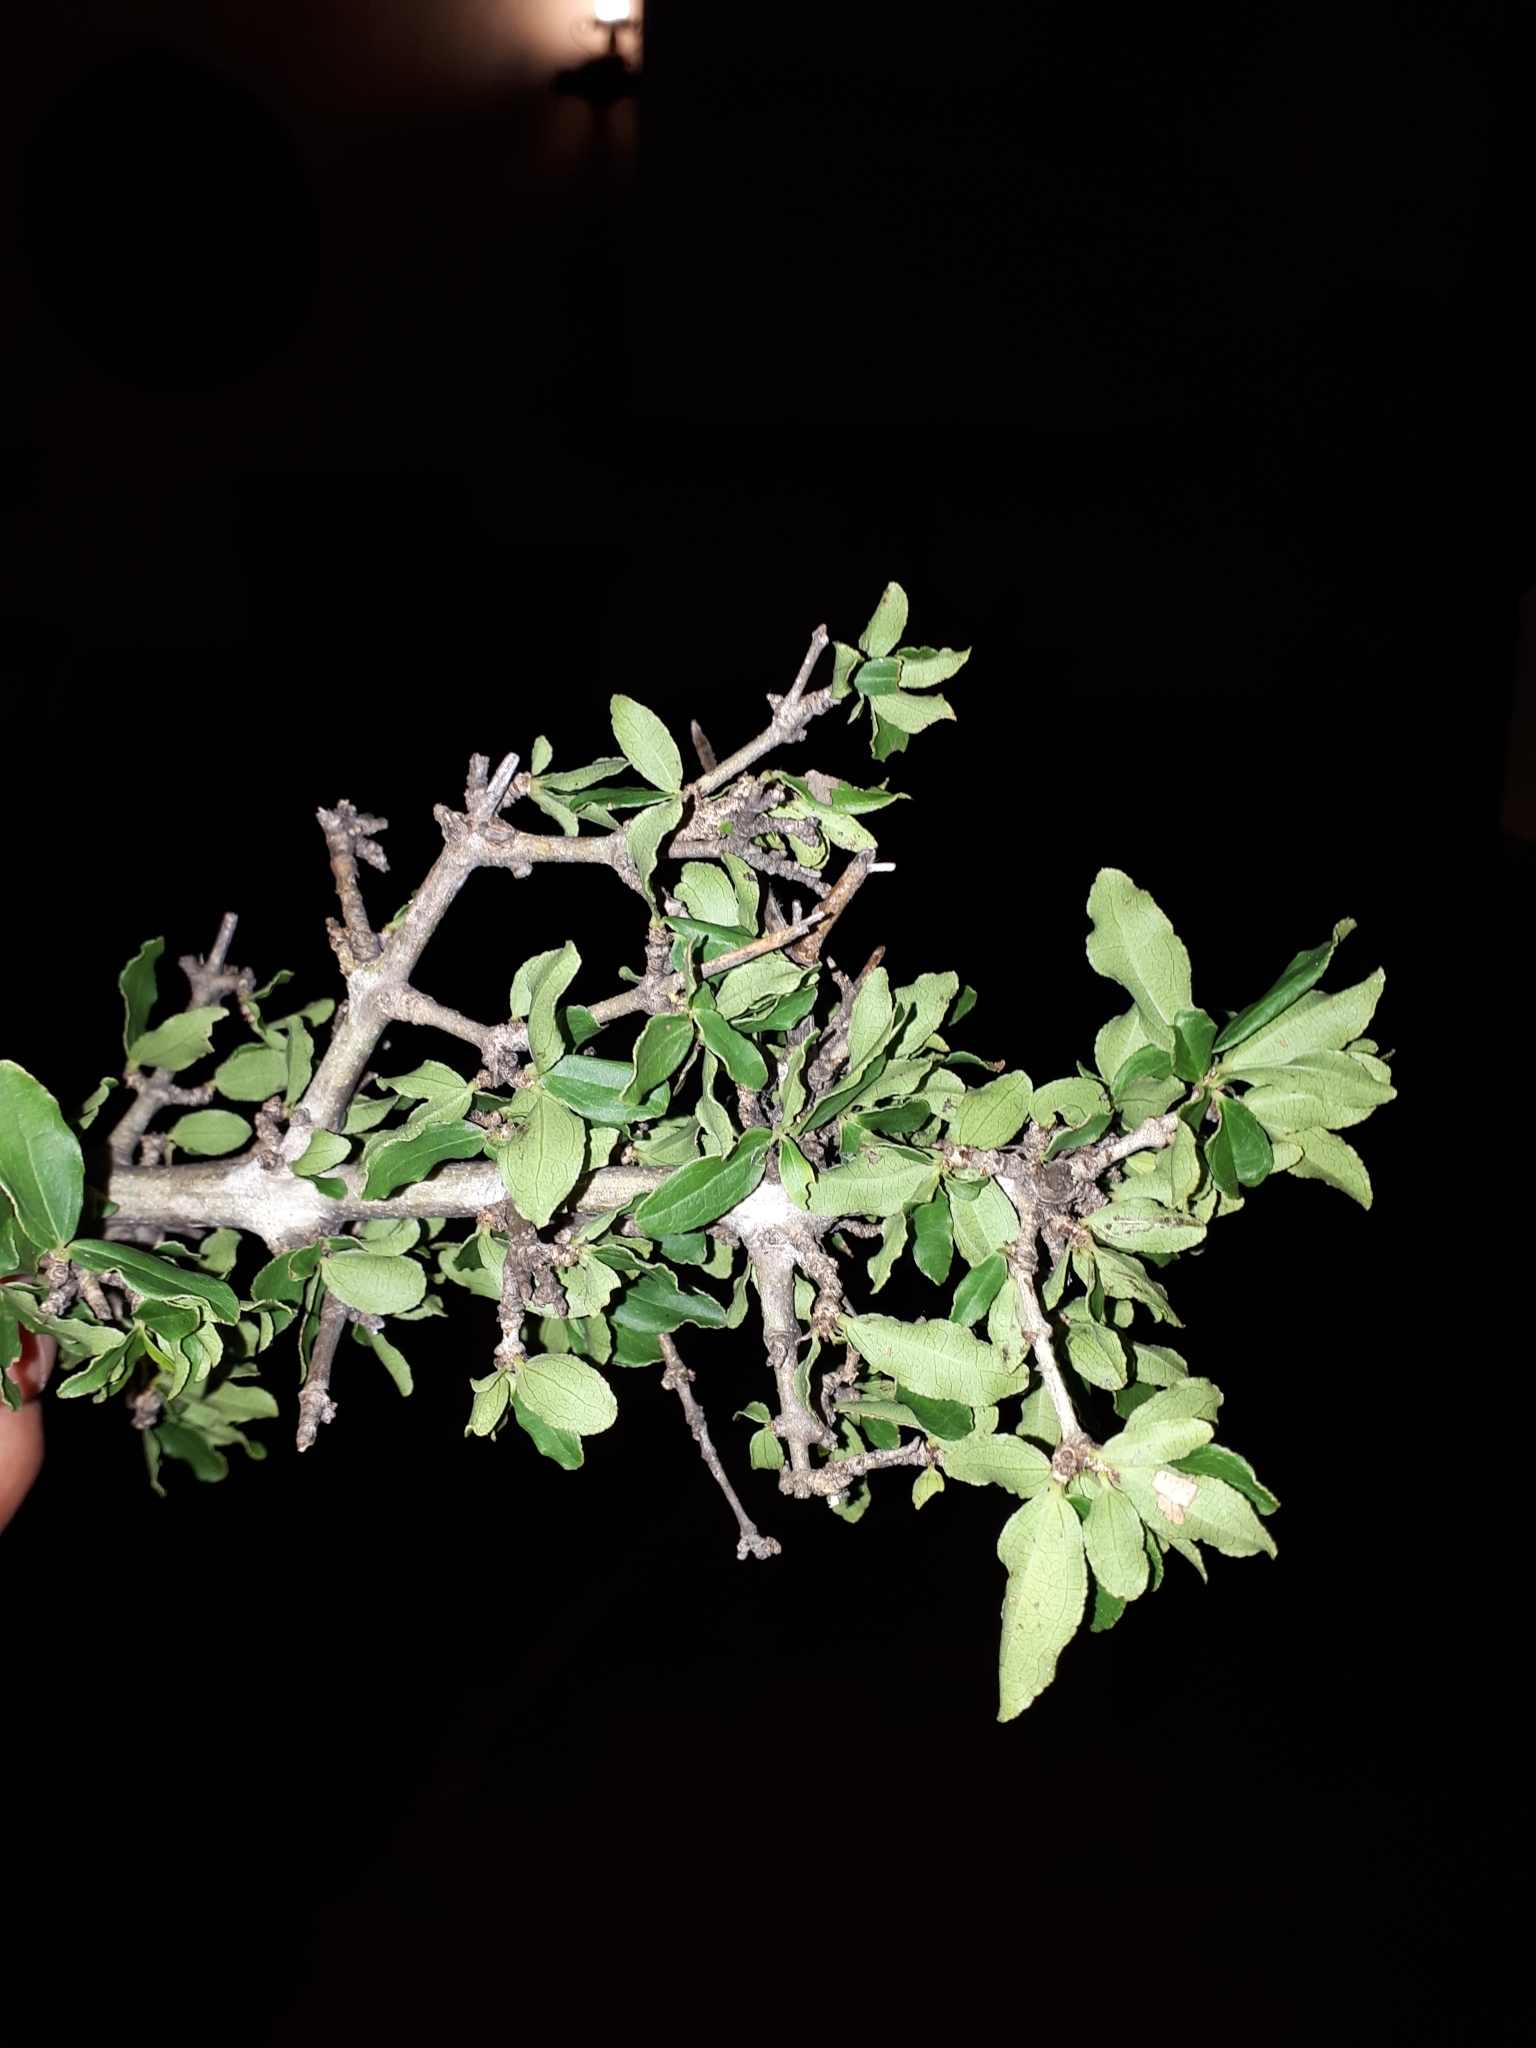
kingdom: Plantae
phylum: Tracheophyta
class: Magnoliopsida
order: Gentianales
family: Loganiaceae
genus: Strychnos
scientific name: Strychnos madagascariensis
